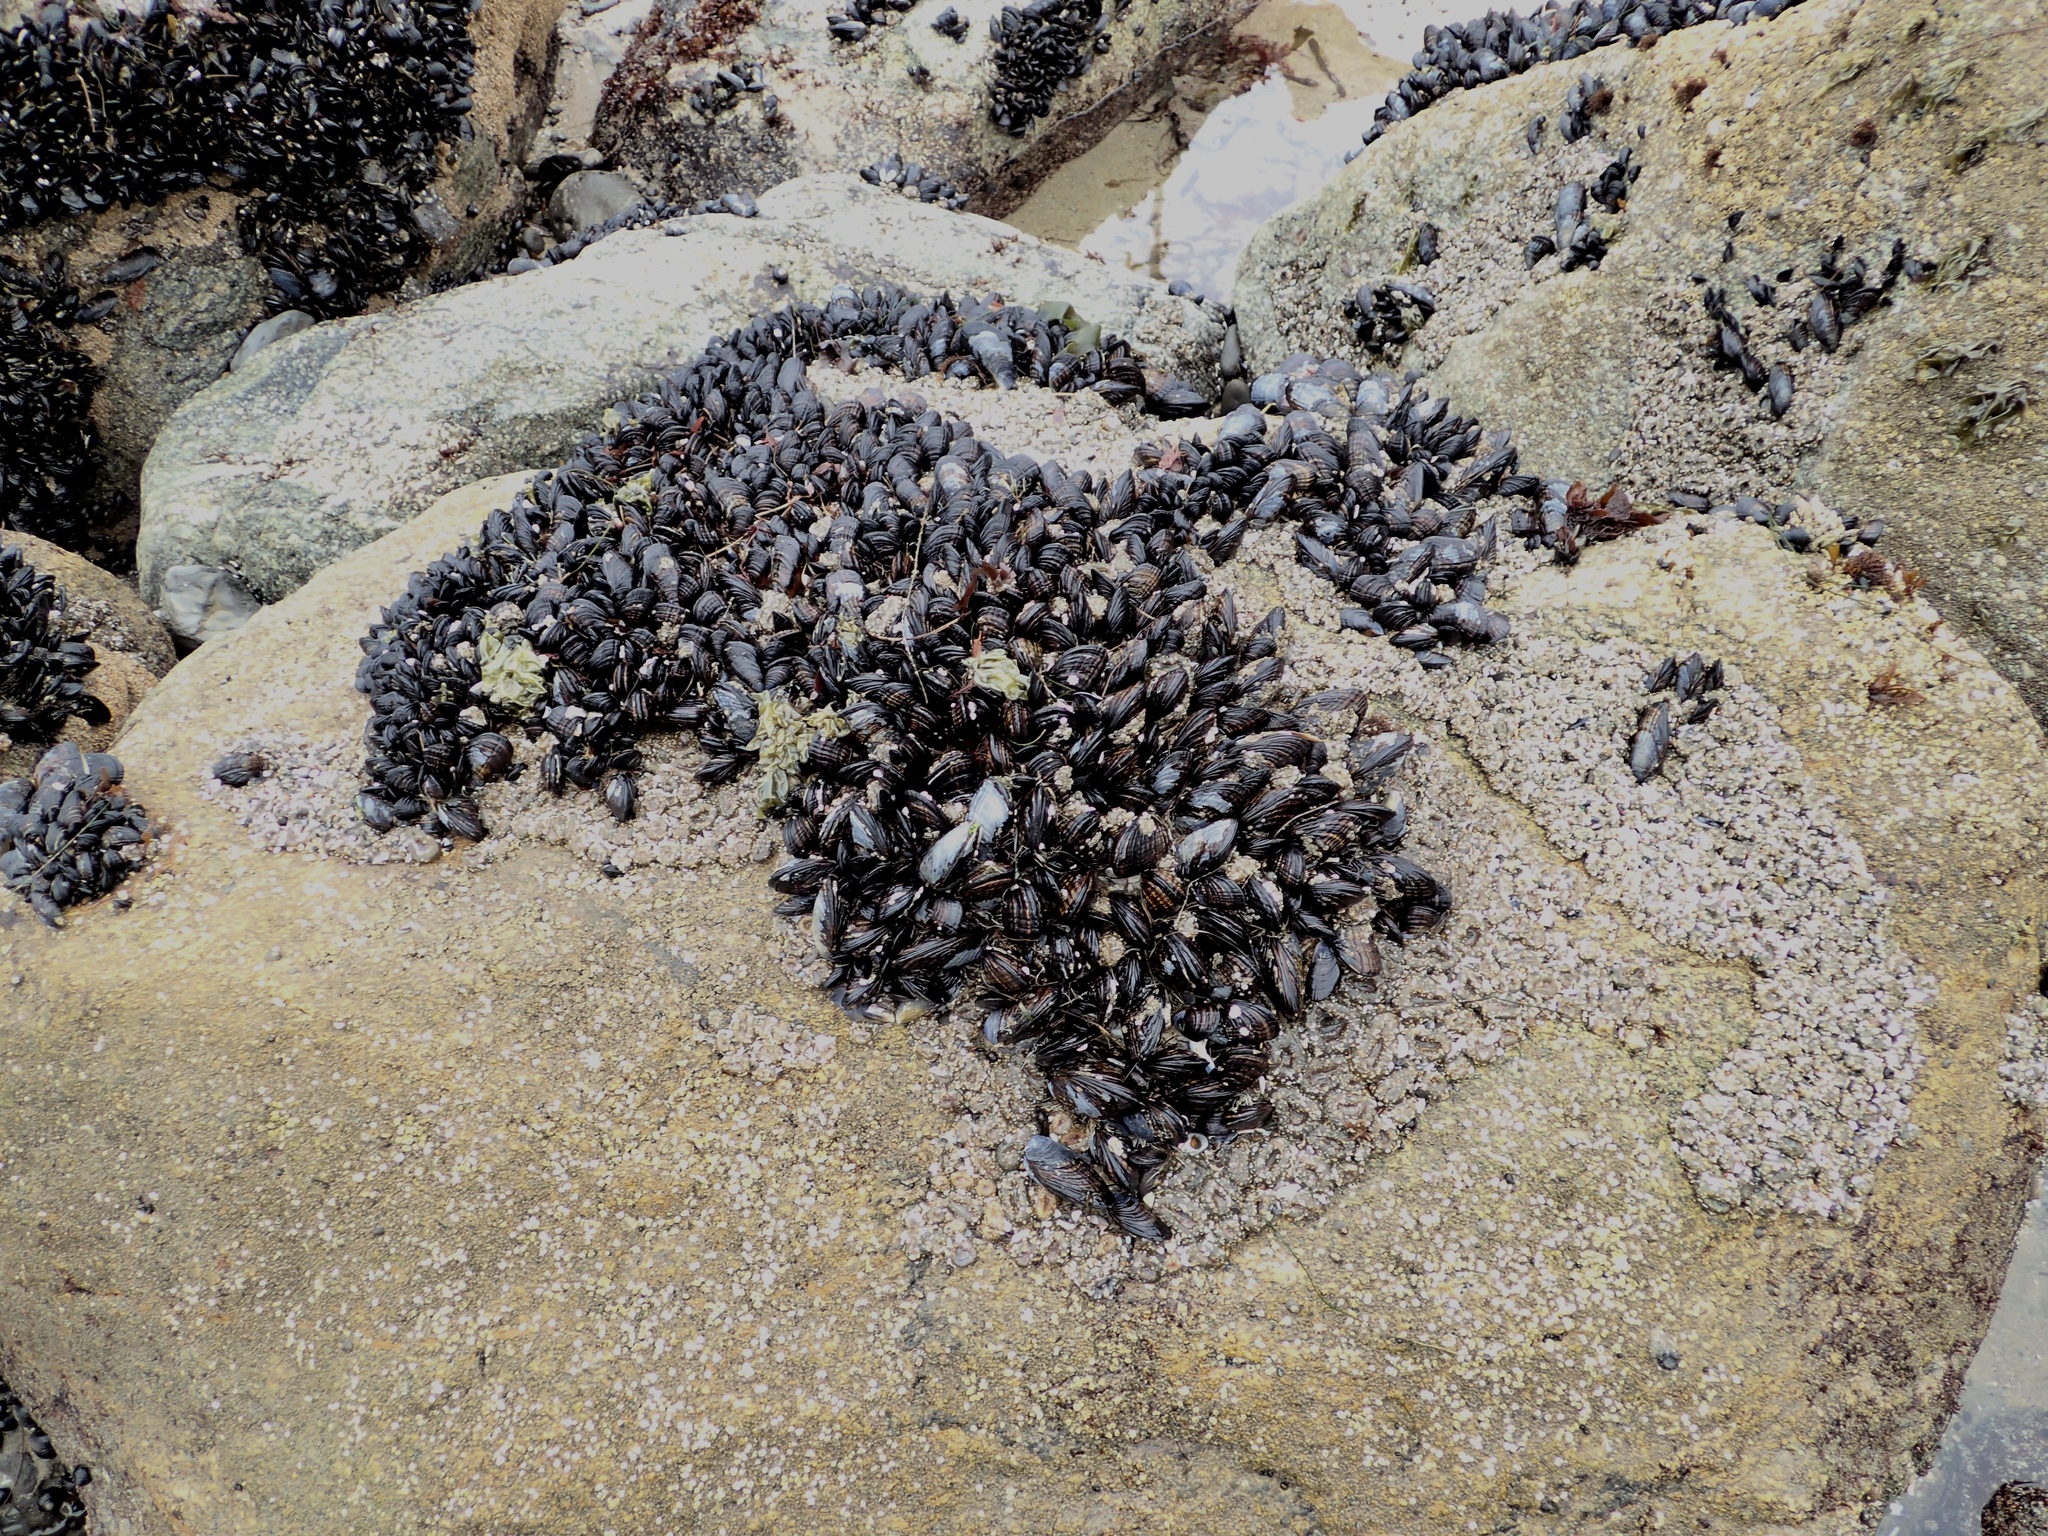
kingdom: Animalia
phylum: Mollusca
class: Bivalvia
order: Mytilida
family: Mytilidae
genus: Mytilus
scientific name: Mytilus californianus
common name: California mussel
